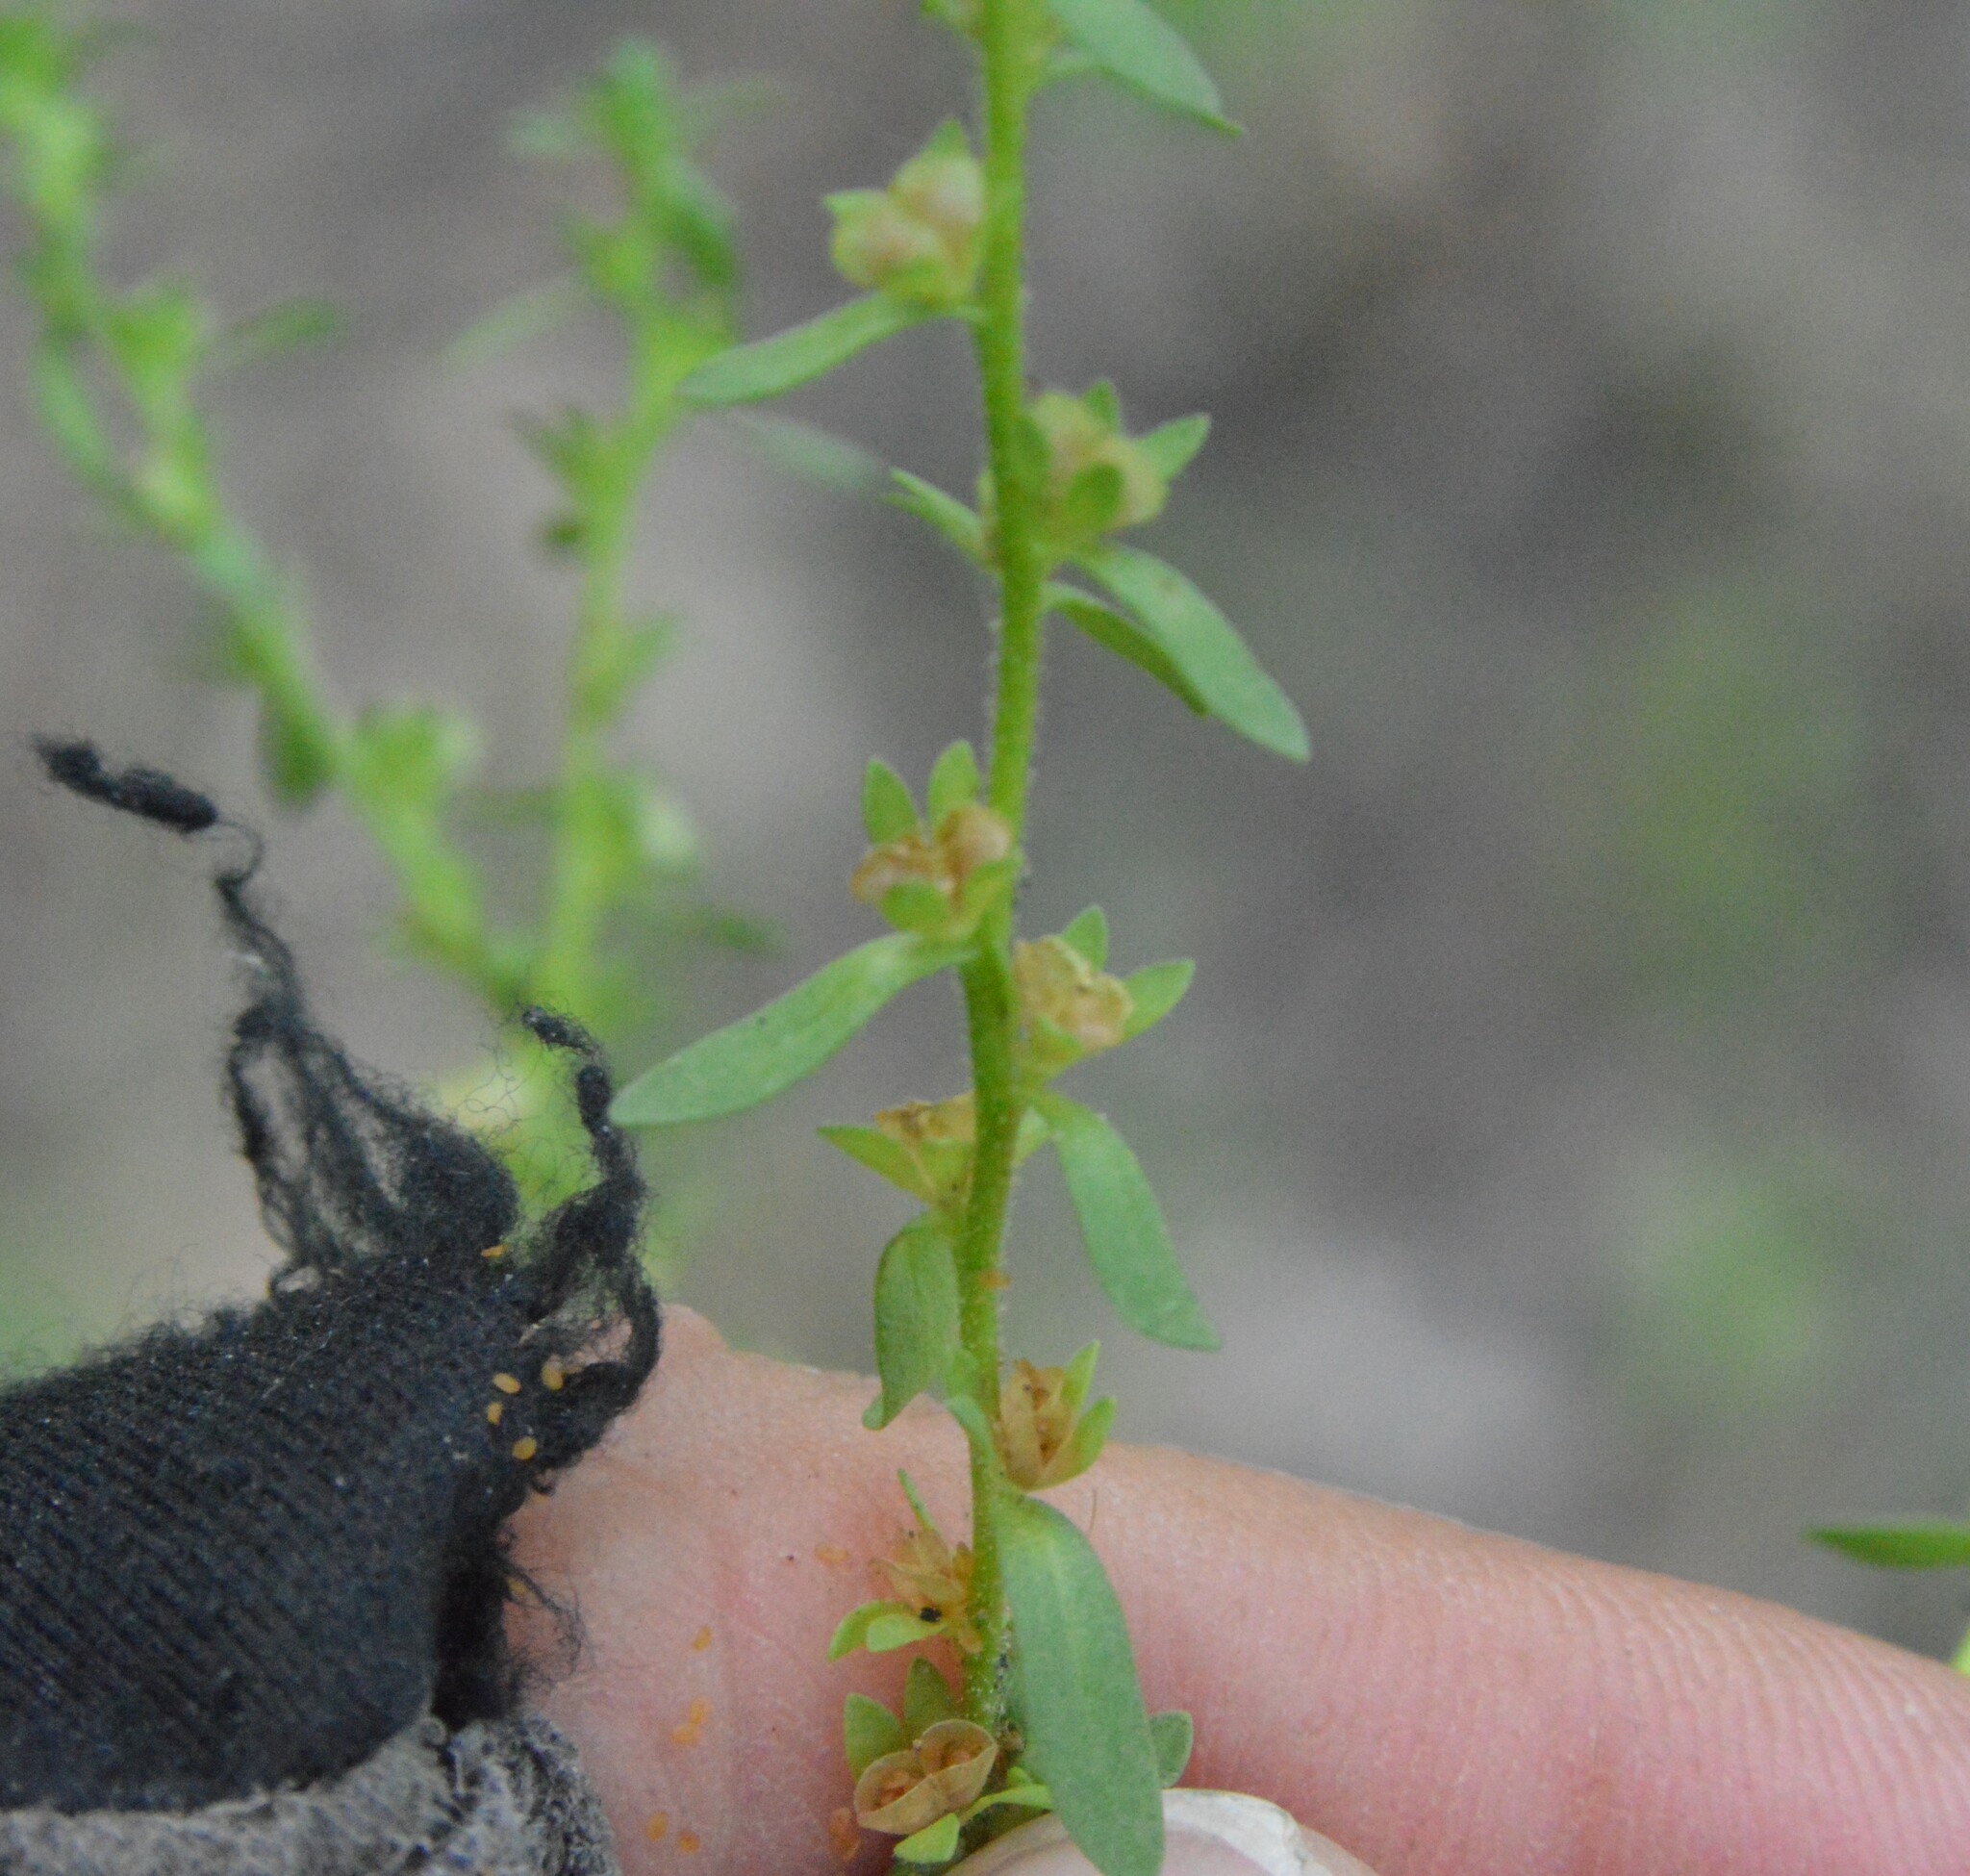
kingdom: Plantae
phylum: Tracheophyta
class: Magnoliopsida
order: Lamiales
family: Plantaginaceae
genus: Veronica
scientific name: Veronica peregrina
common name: Neckweed
